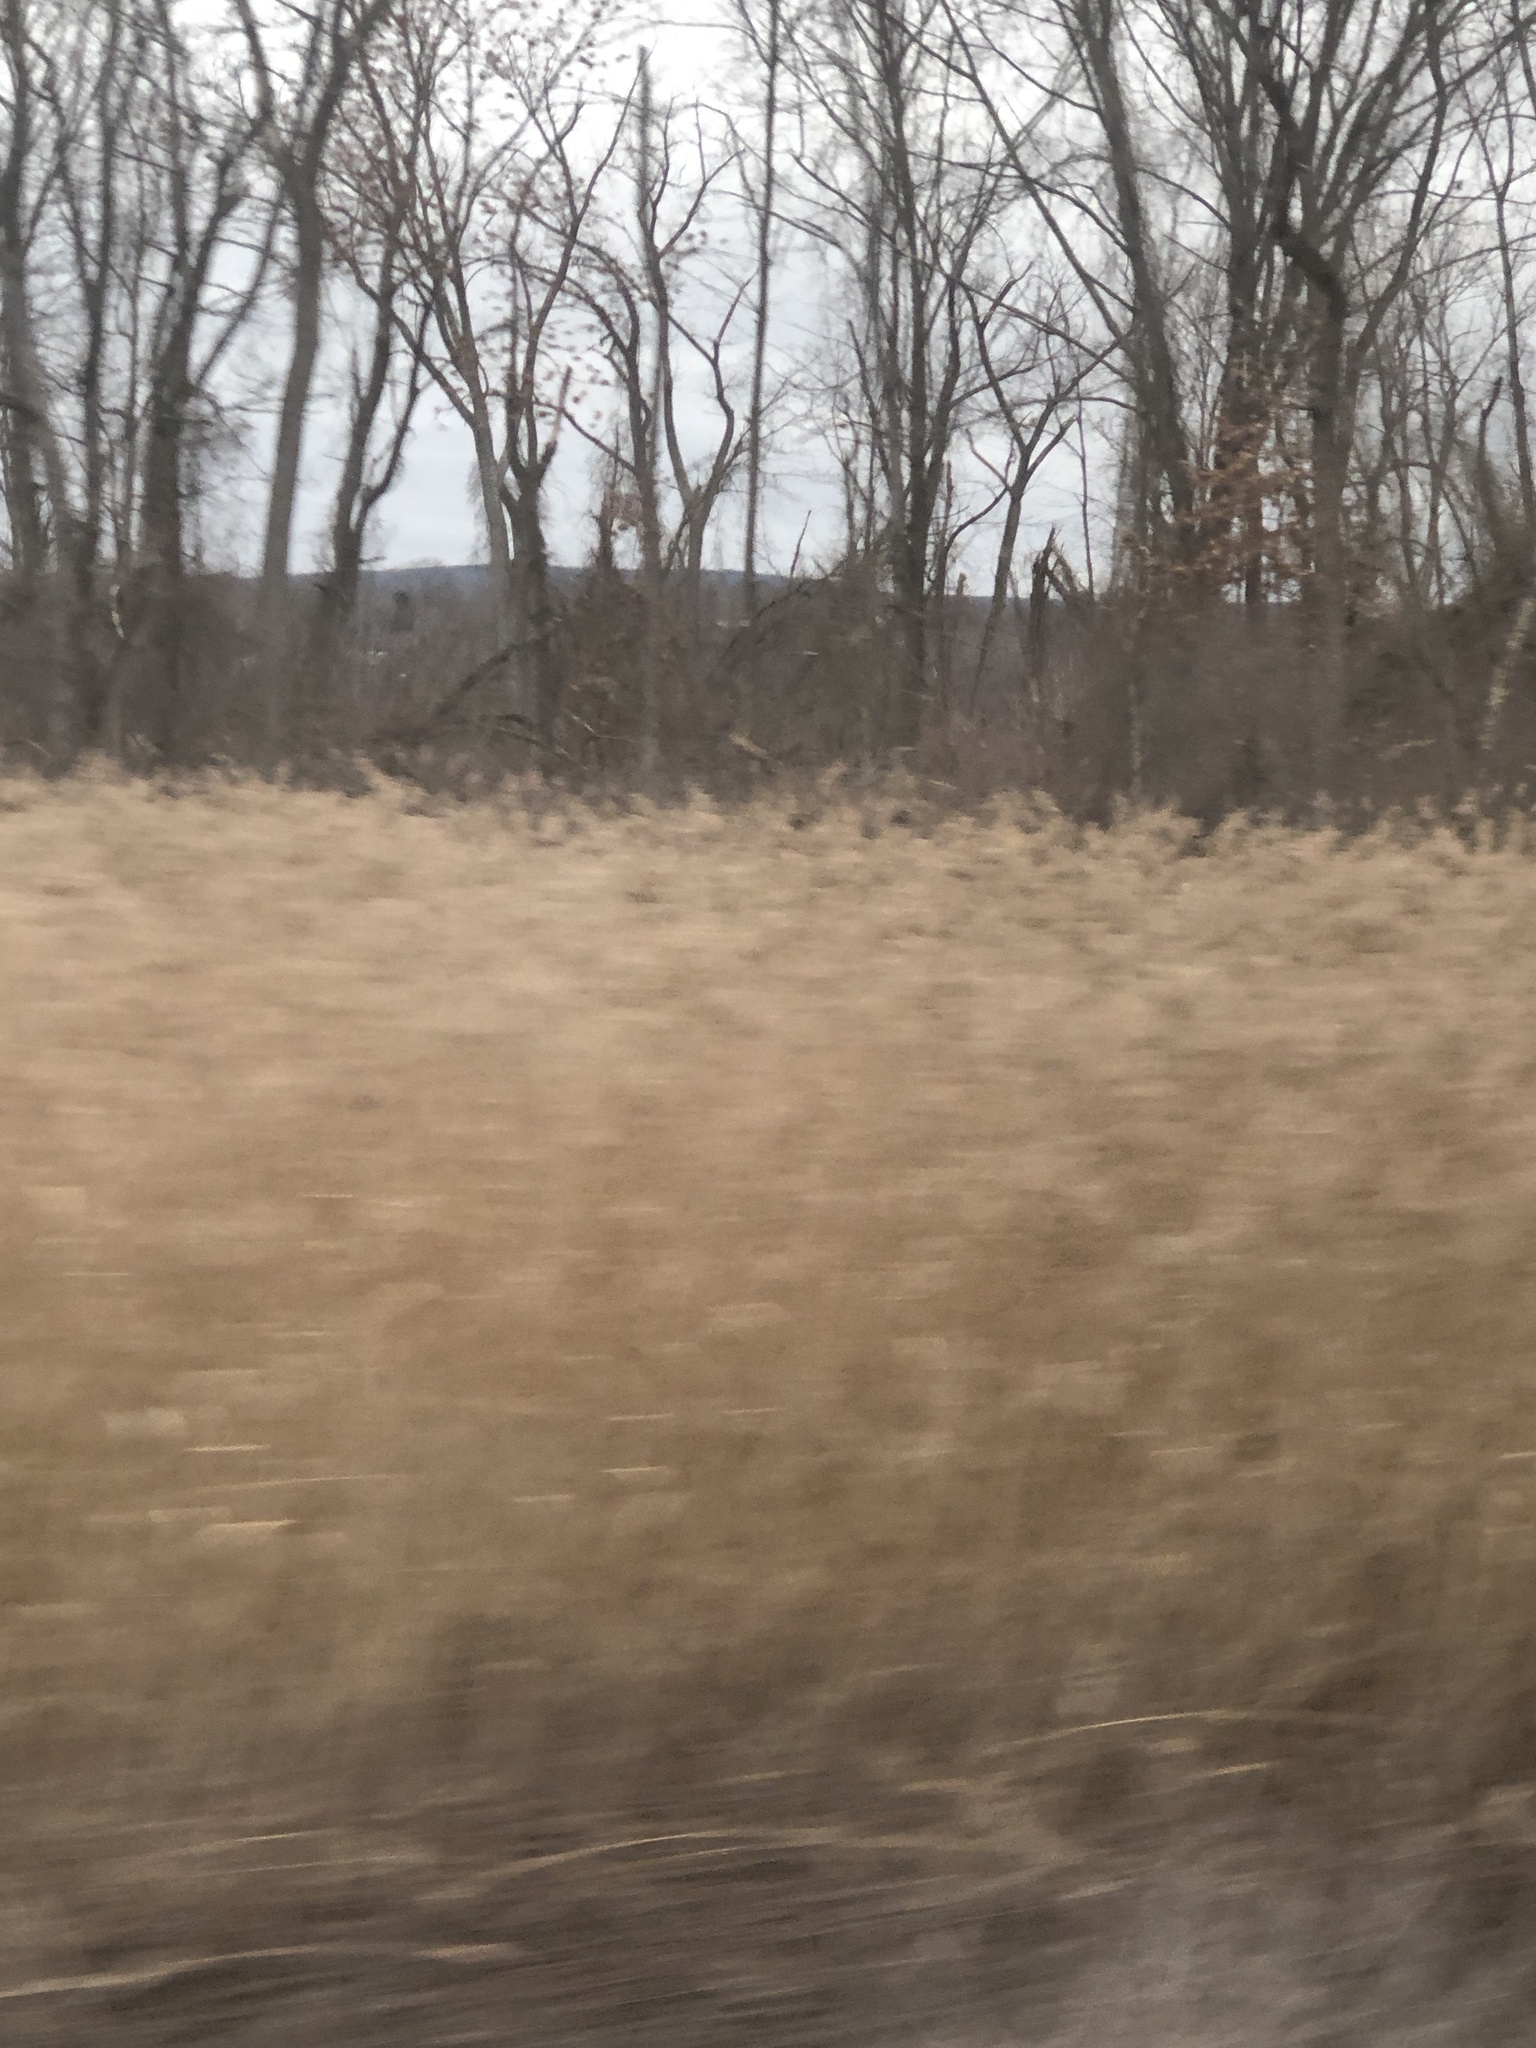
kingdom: Plantae
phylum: Tracheophyta
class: Liliopsida
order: Poales
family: Poaceae
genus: Phragmites
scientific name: Phragmites australis
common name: Common reed
